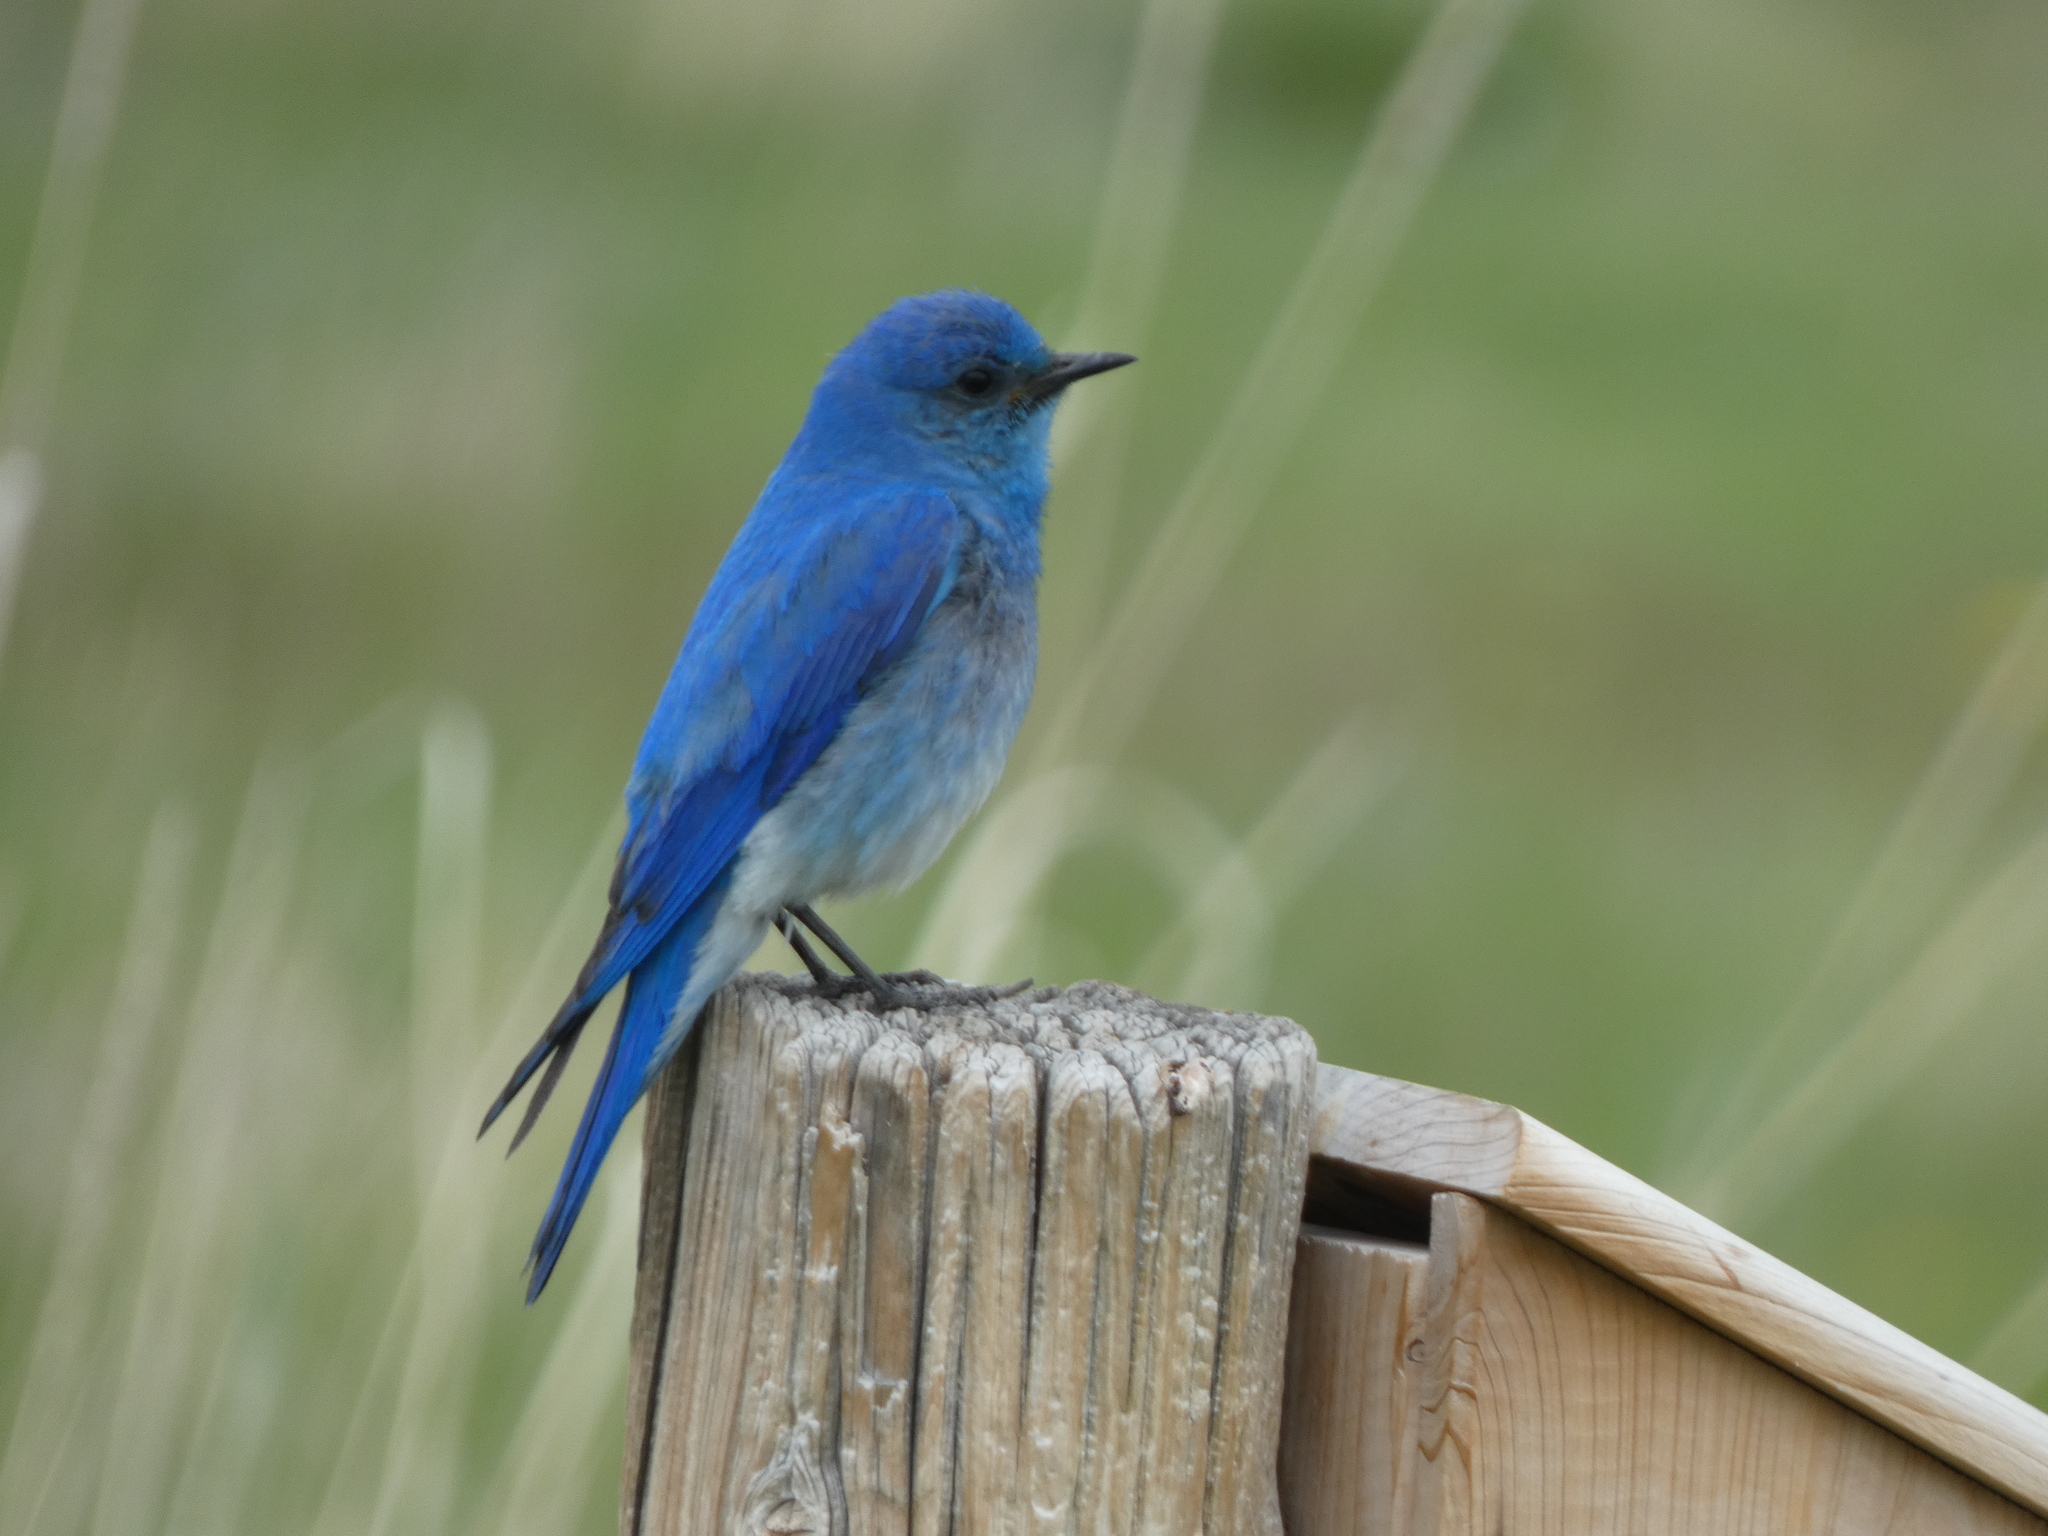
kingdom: Animalia
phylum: Chordata
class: Aves
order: Passeriformes
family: Turdidae
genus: Sialia
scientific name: Sialia currucoides
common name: Mountain bluebird
